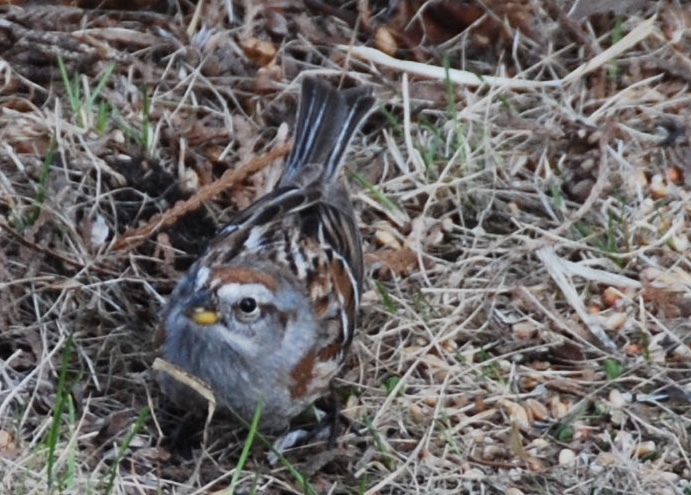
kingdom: Animalia
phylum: Chordata
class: Aves
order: Passeriformes
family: Passerellidae
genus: Spizelloides
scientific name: Spizelloides arborea
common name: American tree sparrow
